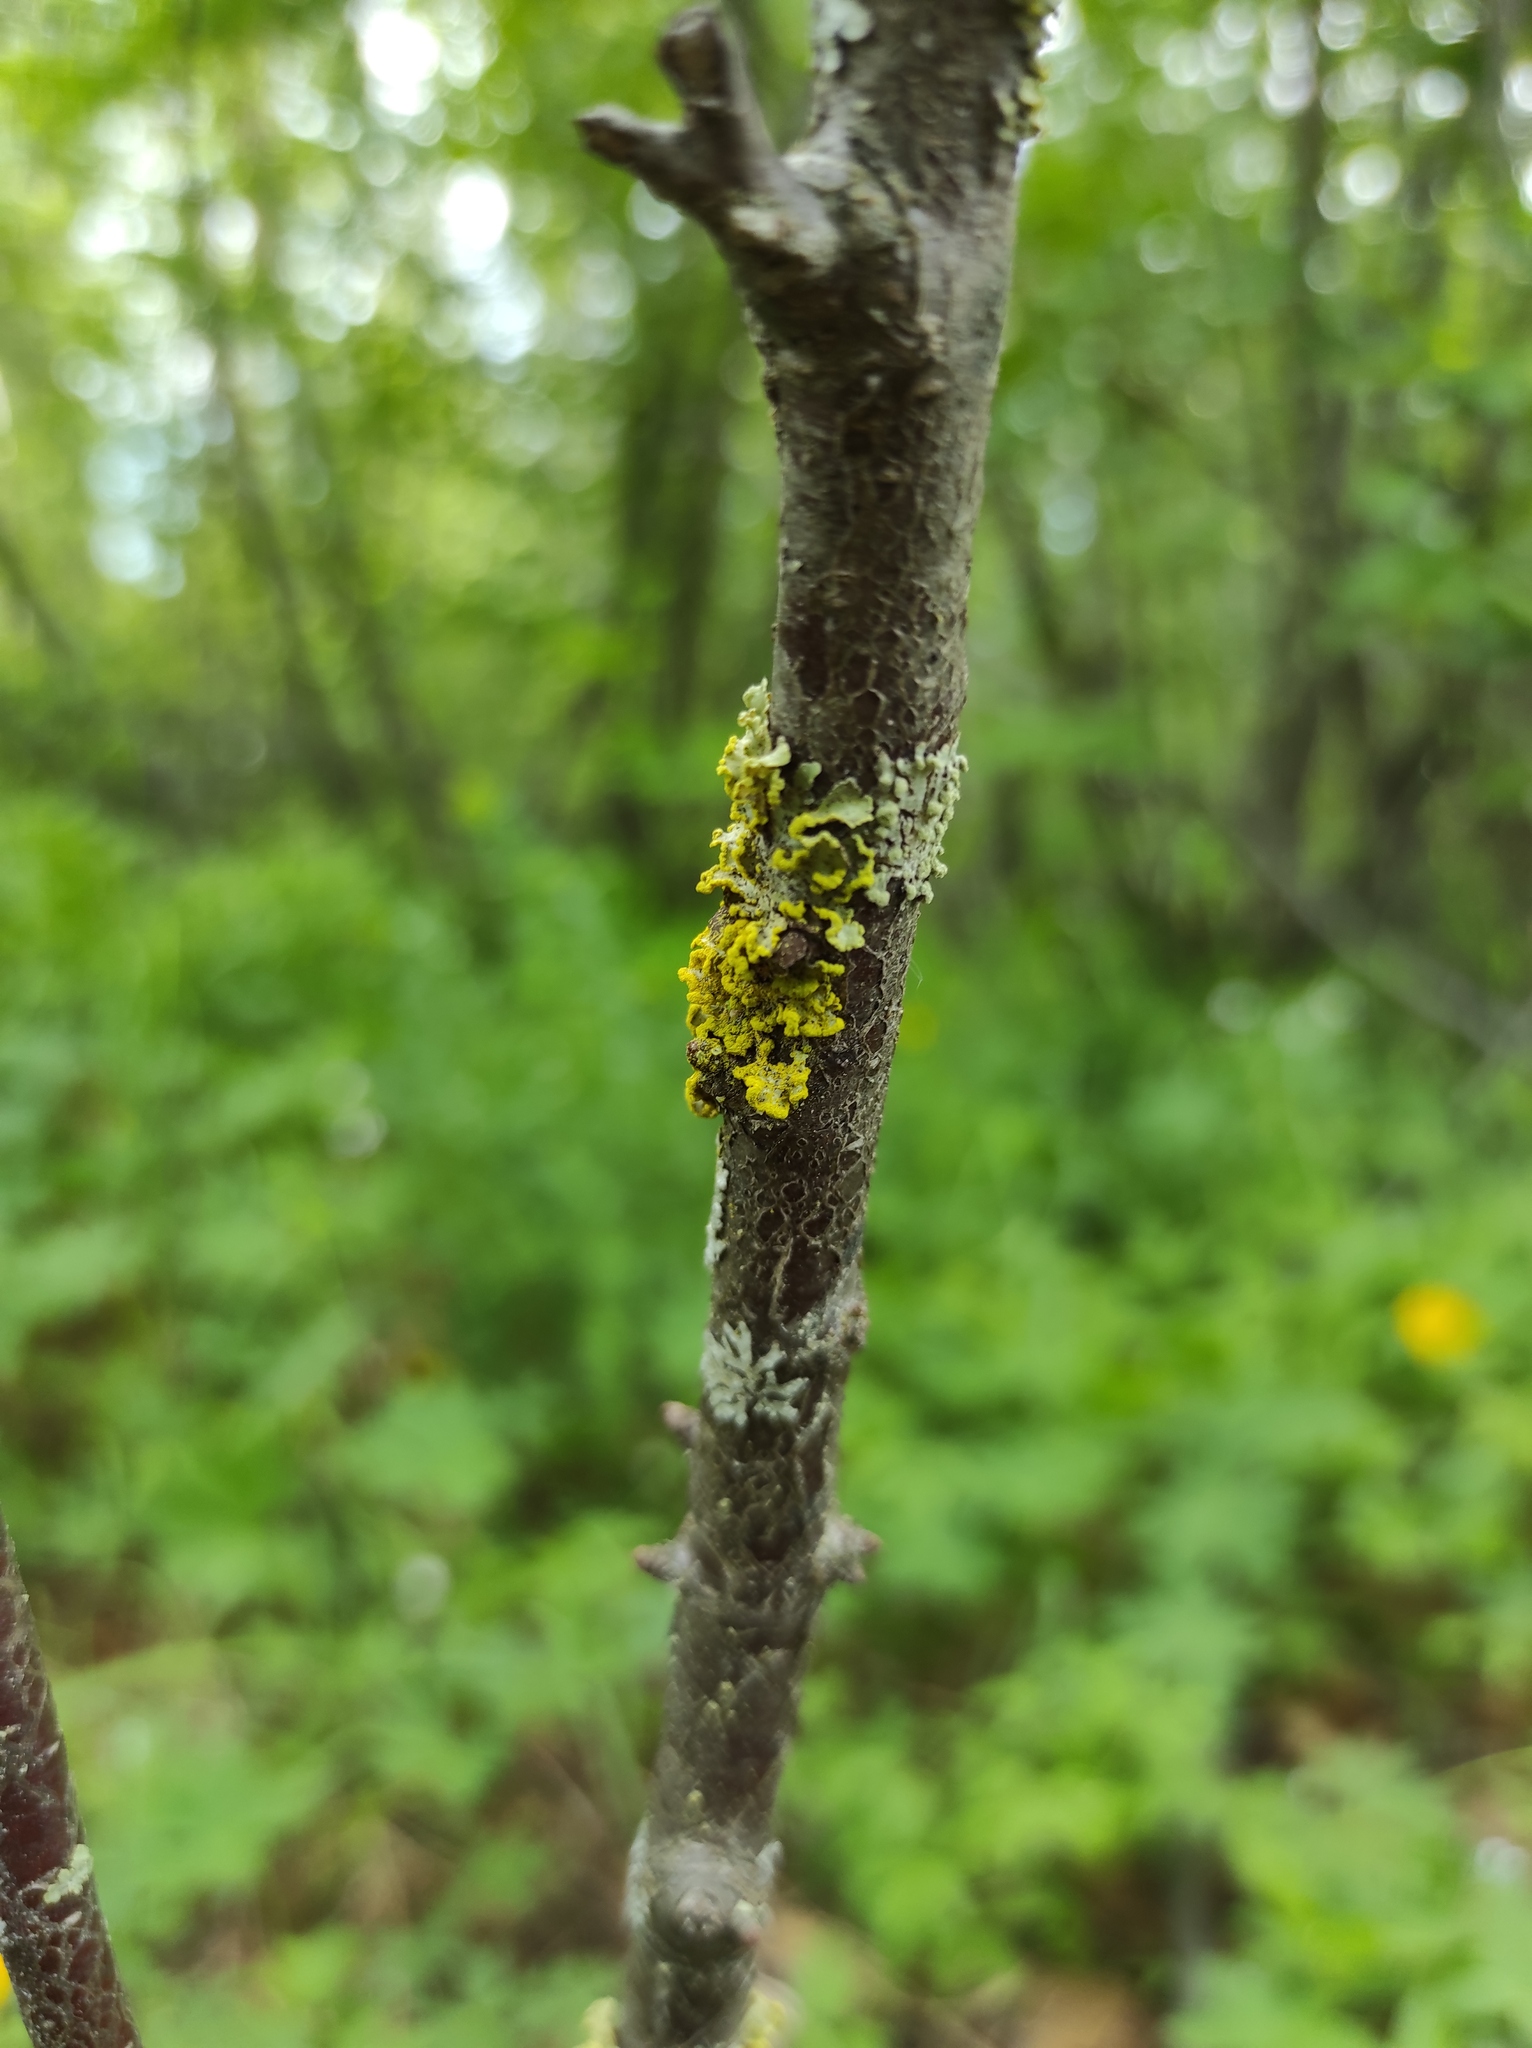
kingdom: Fungi
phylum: Ascomycota
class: Lecanoromycetes
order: Lecanorales
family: Parmeliaceae
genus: Vulpicida
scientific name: Vulpicida pinastri
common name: Powdered sunshine lichen
